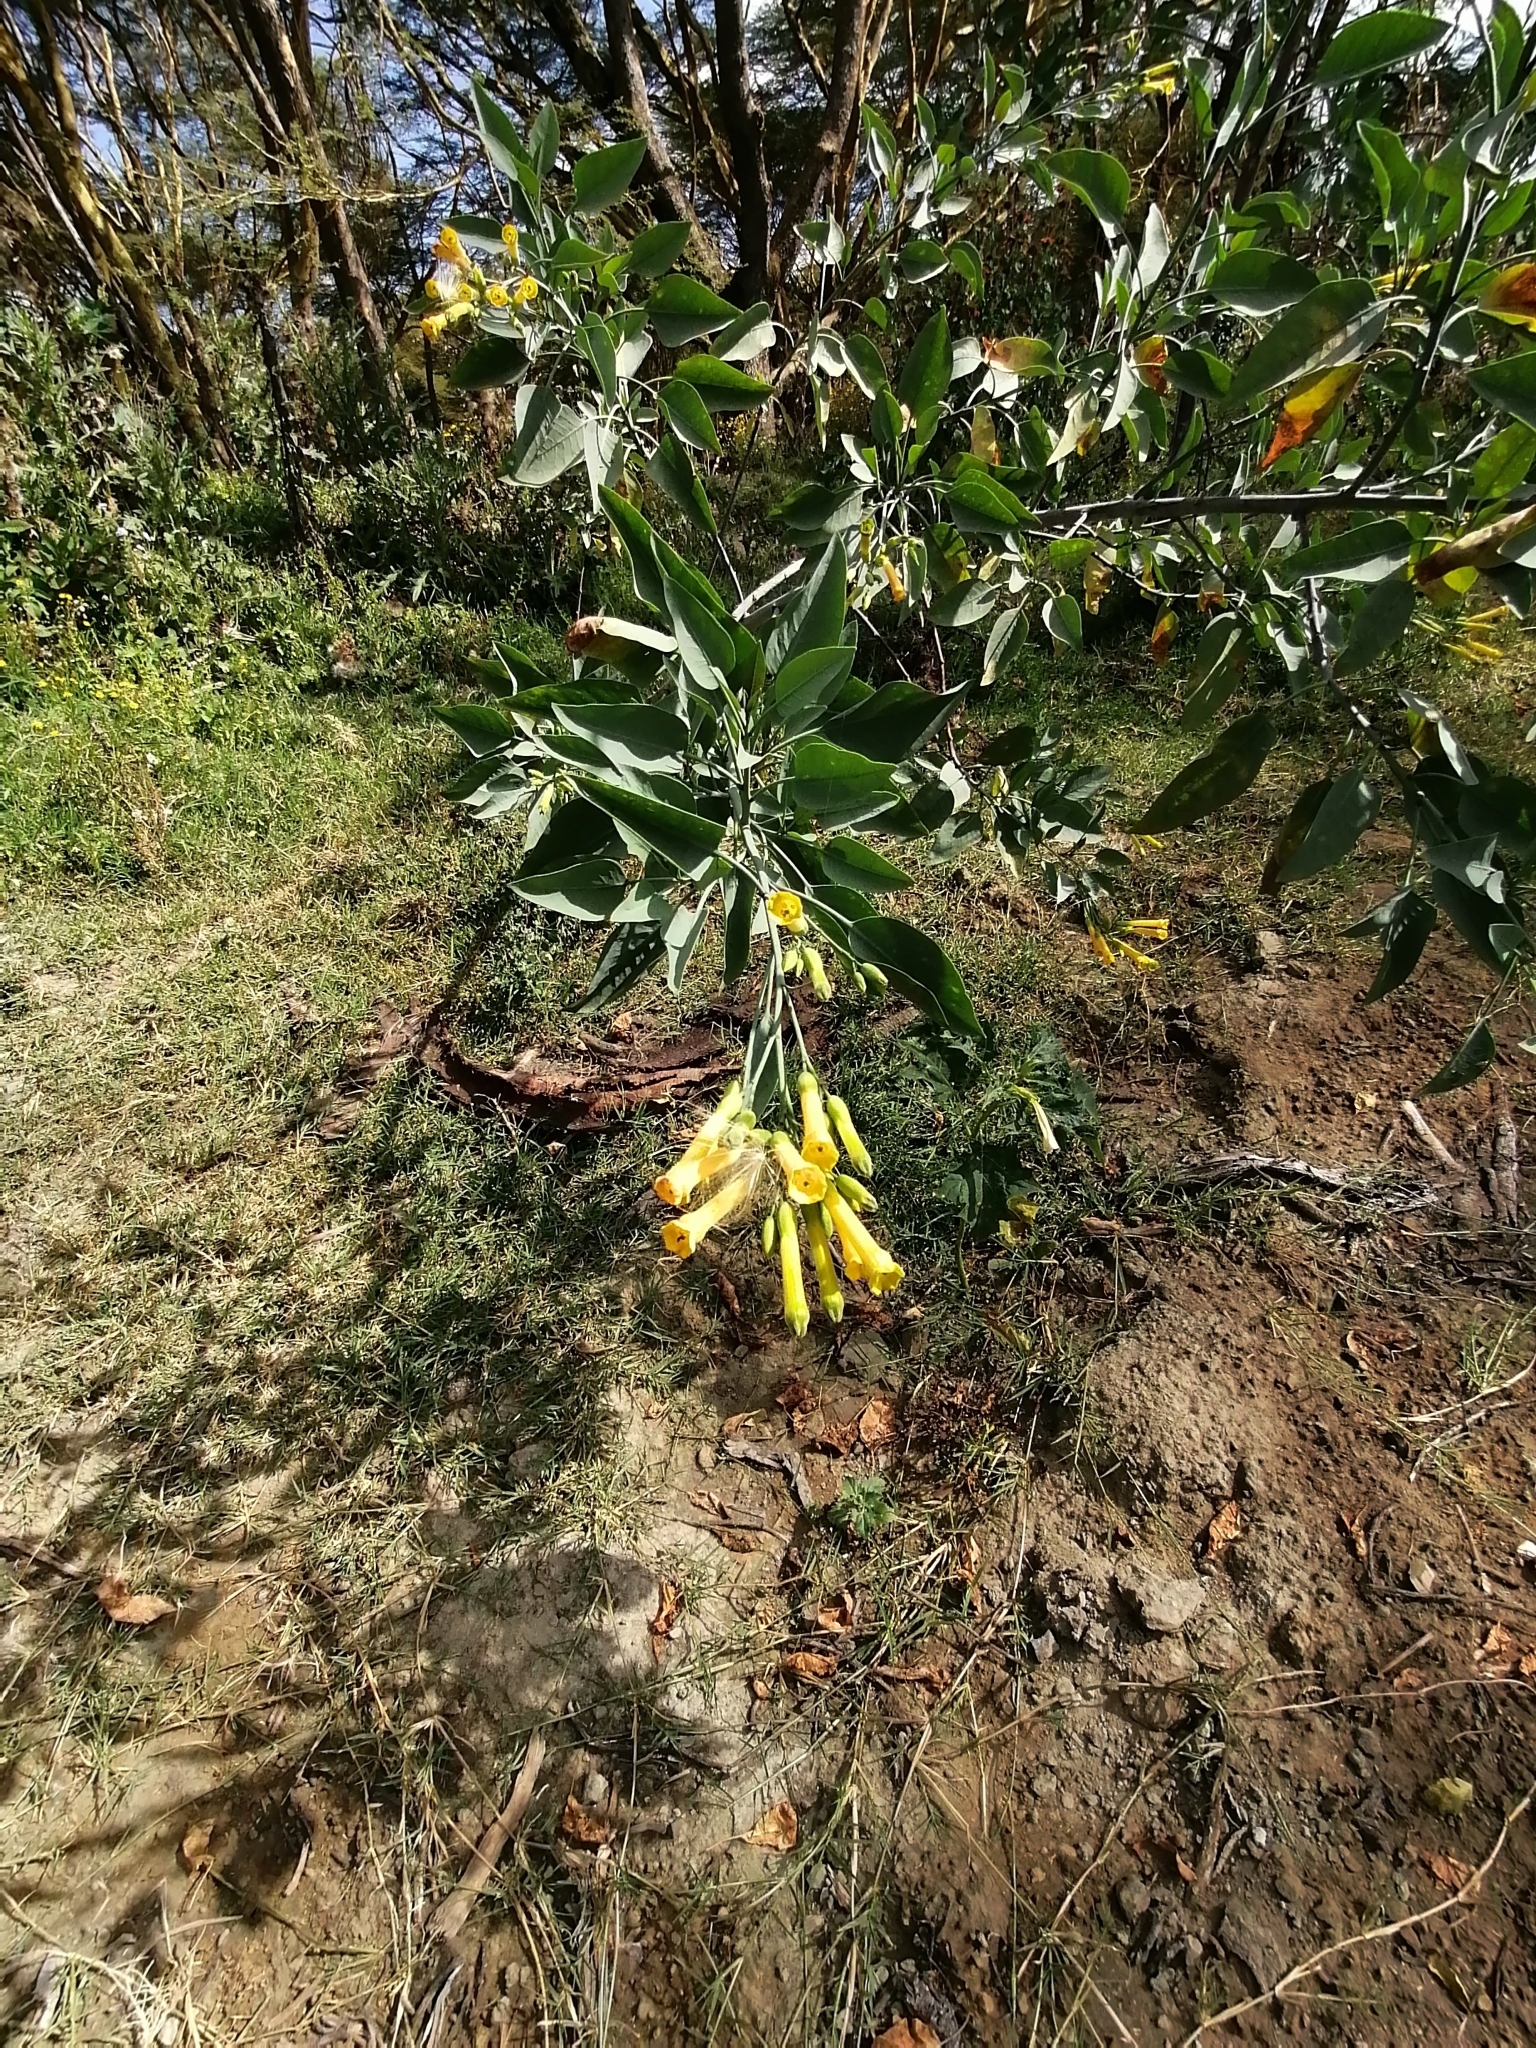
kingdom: Plantae
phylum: Tracheophyta
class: Magnoliopsida
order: Solanales
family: Solanaceae
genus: Nicotiana
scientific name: Nicotiana glauca
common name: Tree tobacco
